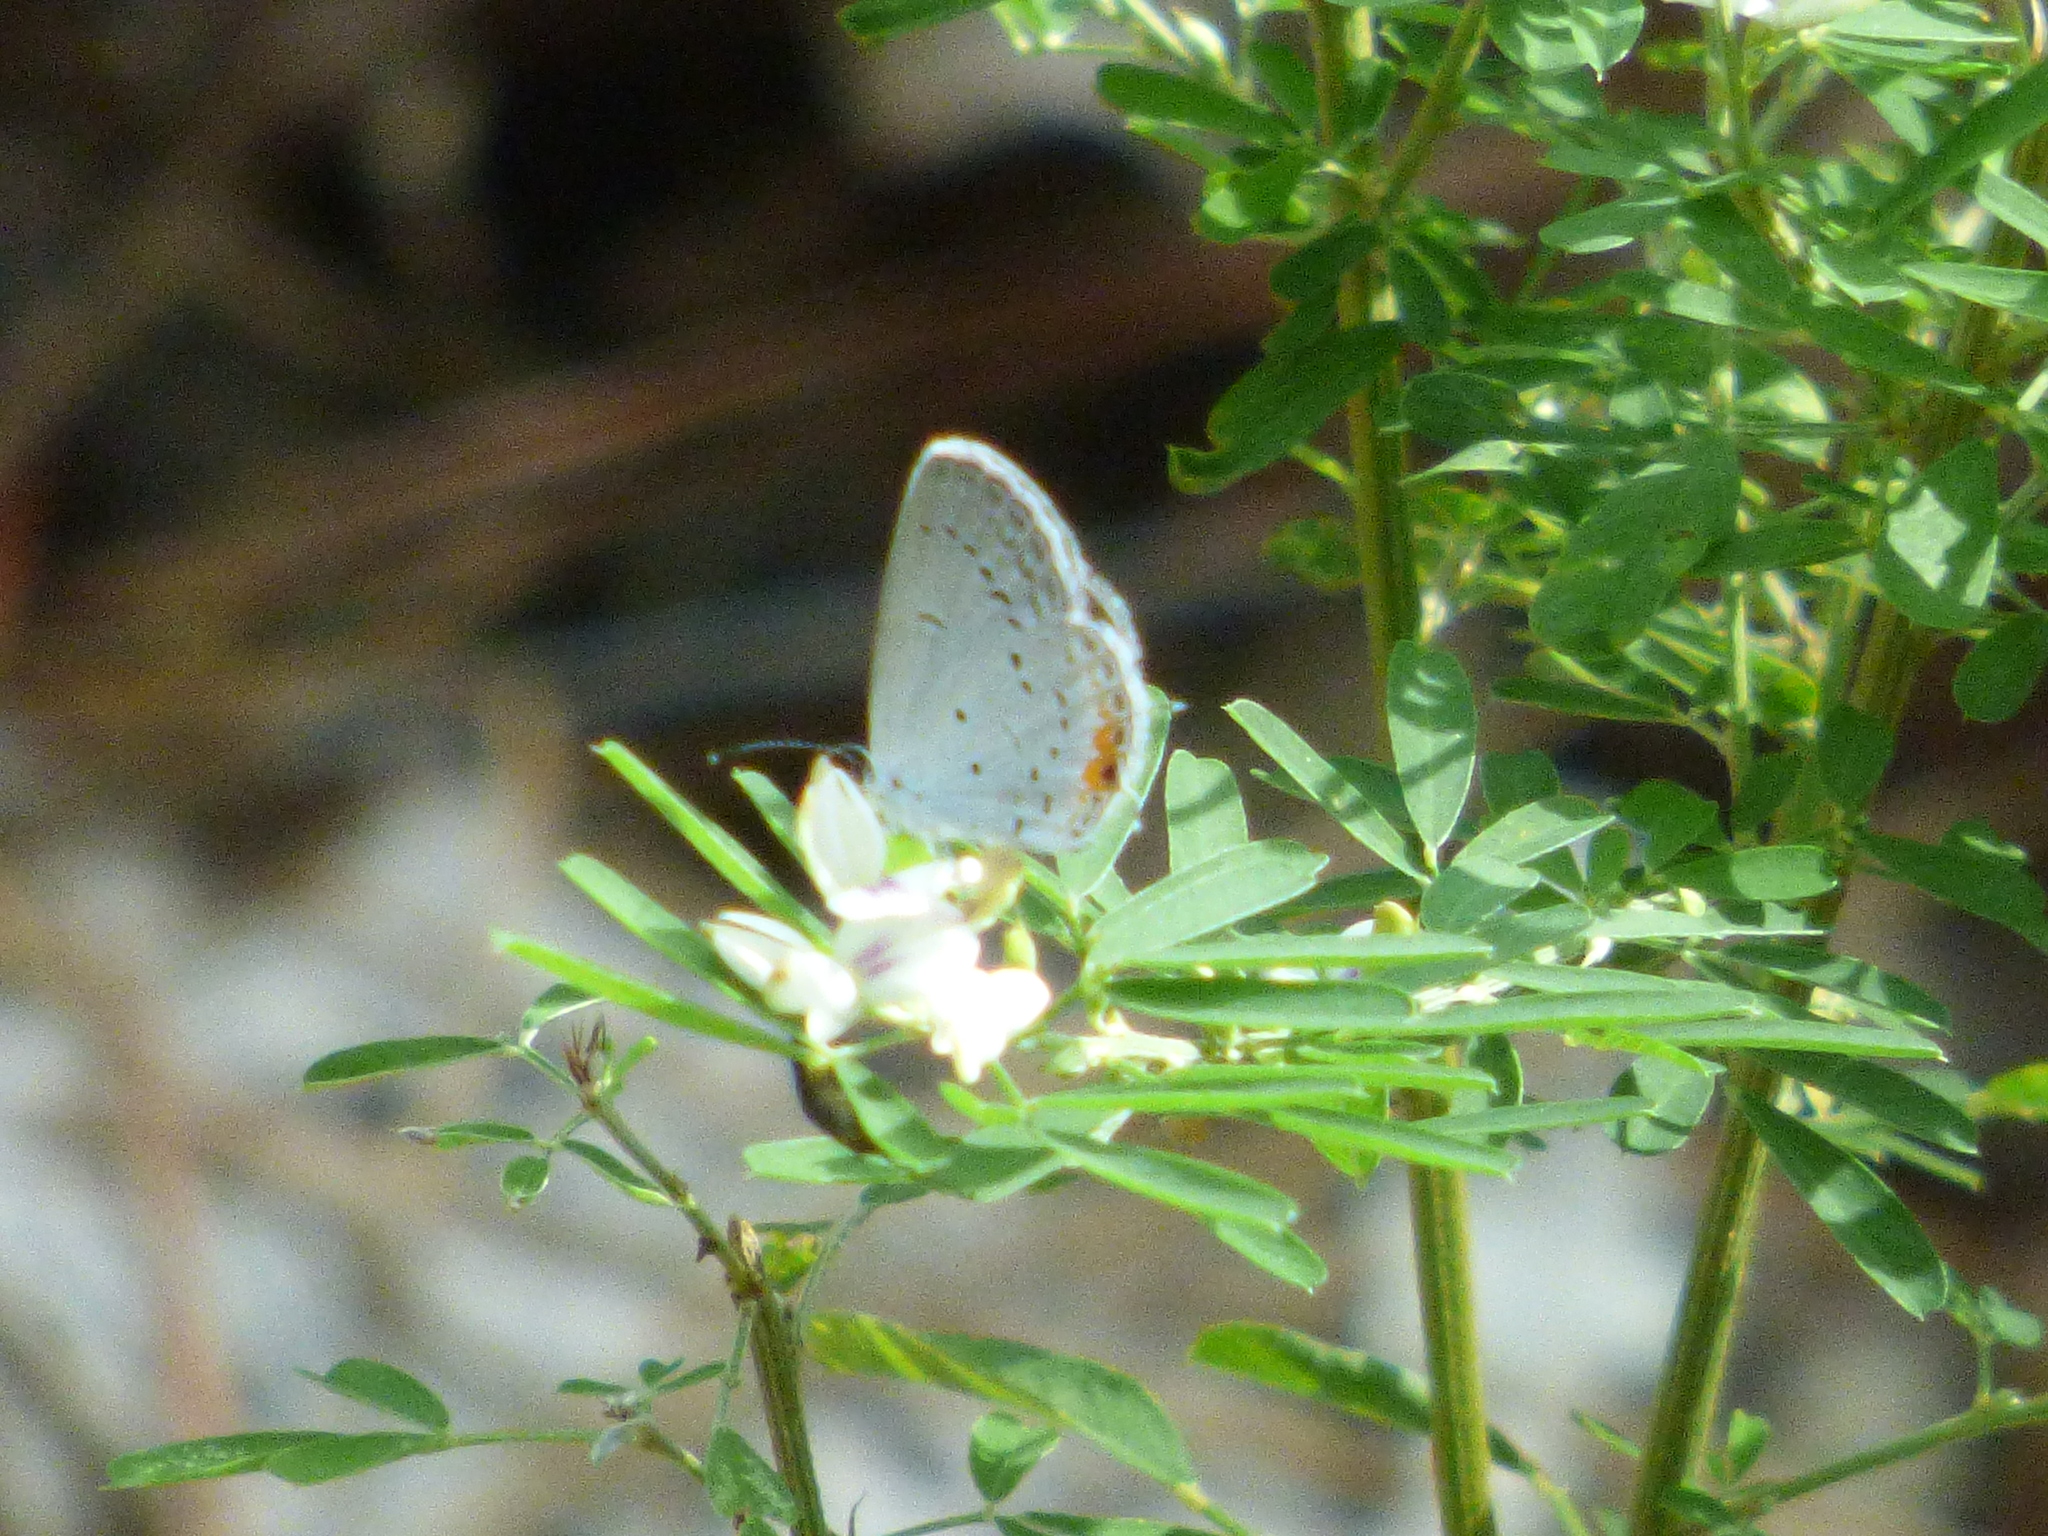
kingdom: Plantae
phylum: Tracheophyta
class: Magnoliopsida
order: Fabales
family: Fabaceae
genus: Lespedeza
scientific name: Lespedeza cuneata
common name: Chinese bush-clover
